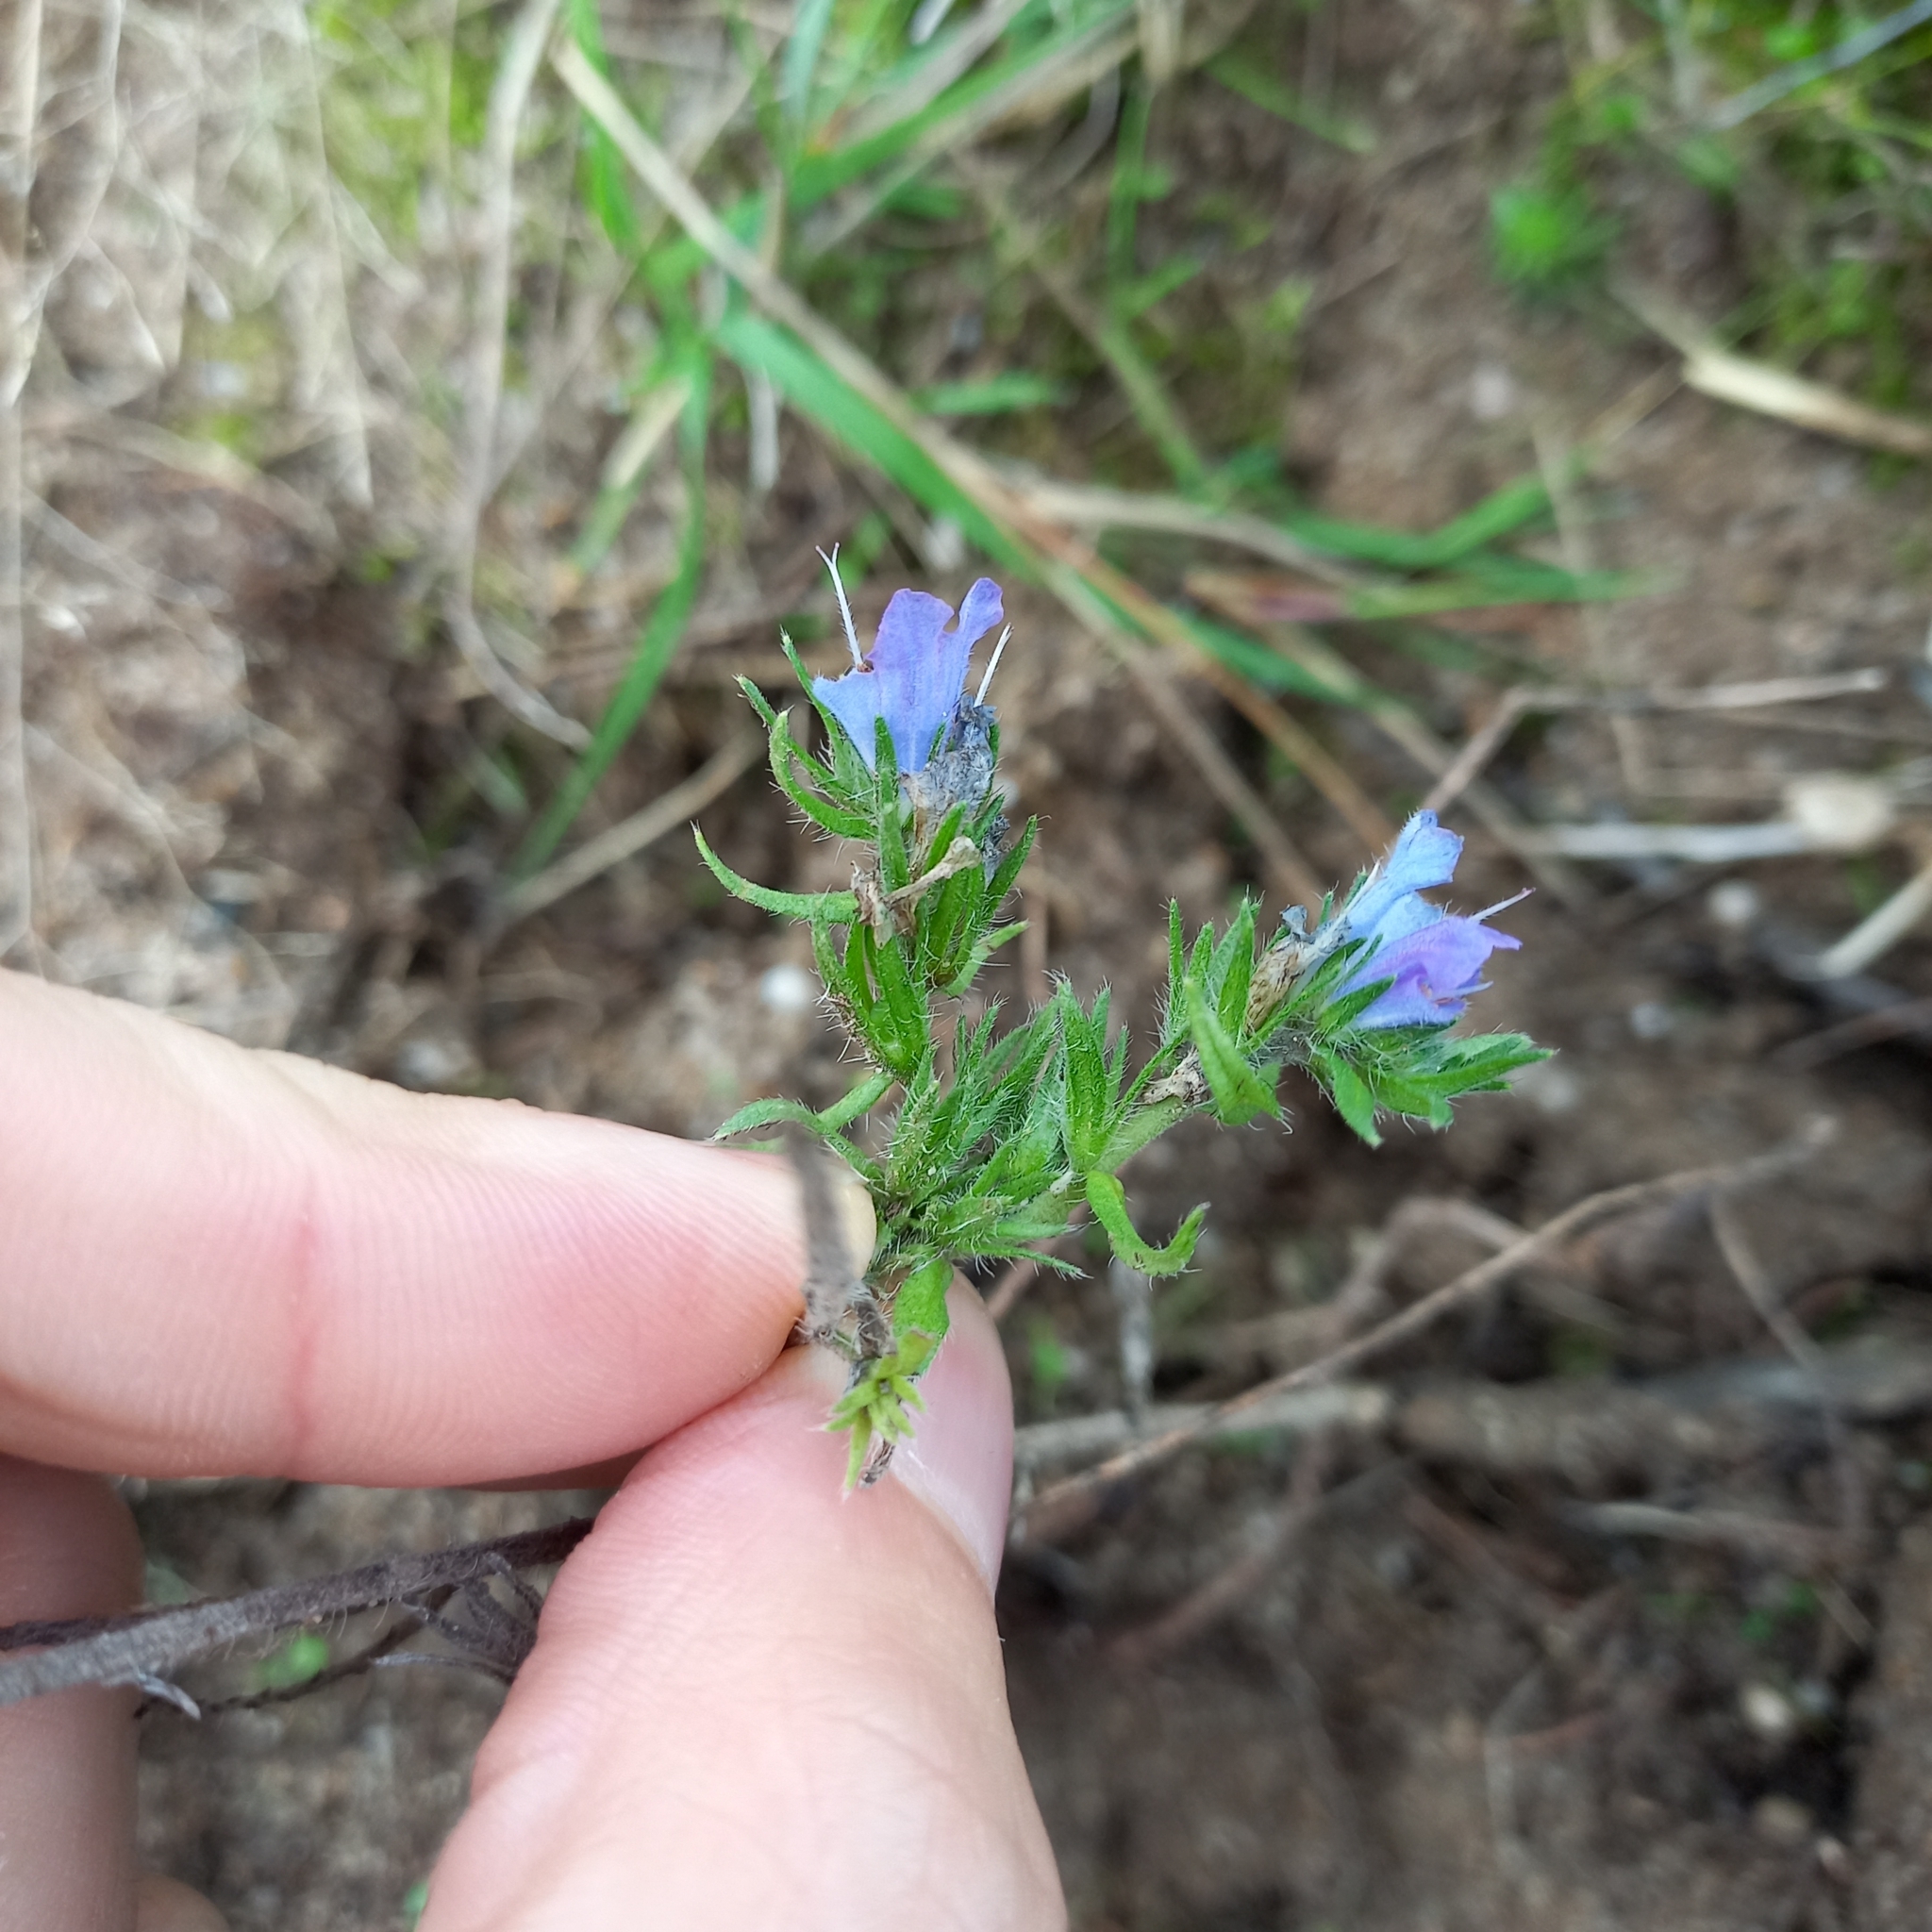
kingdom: Plantae
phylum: Tracheophyta
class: Magnoliopsida
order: Boraginales
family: Boraginaceae
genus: Echium
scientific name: Echium vulgare
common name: Common viper's bugloss
